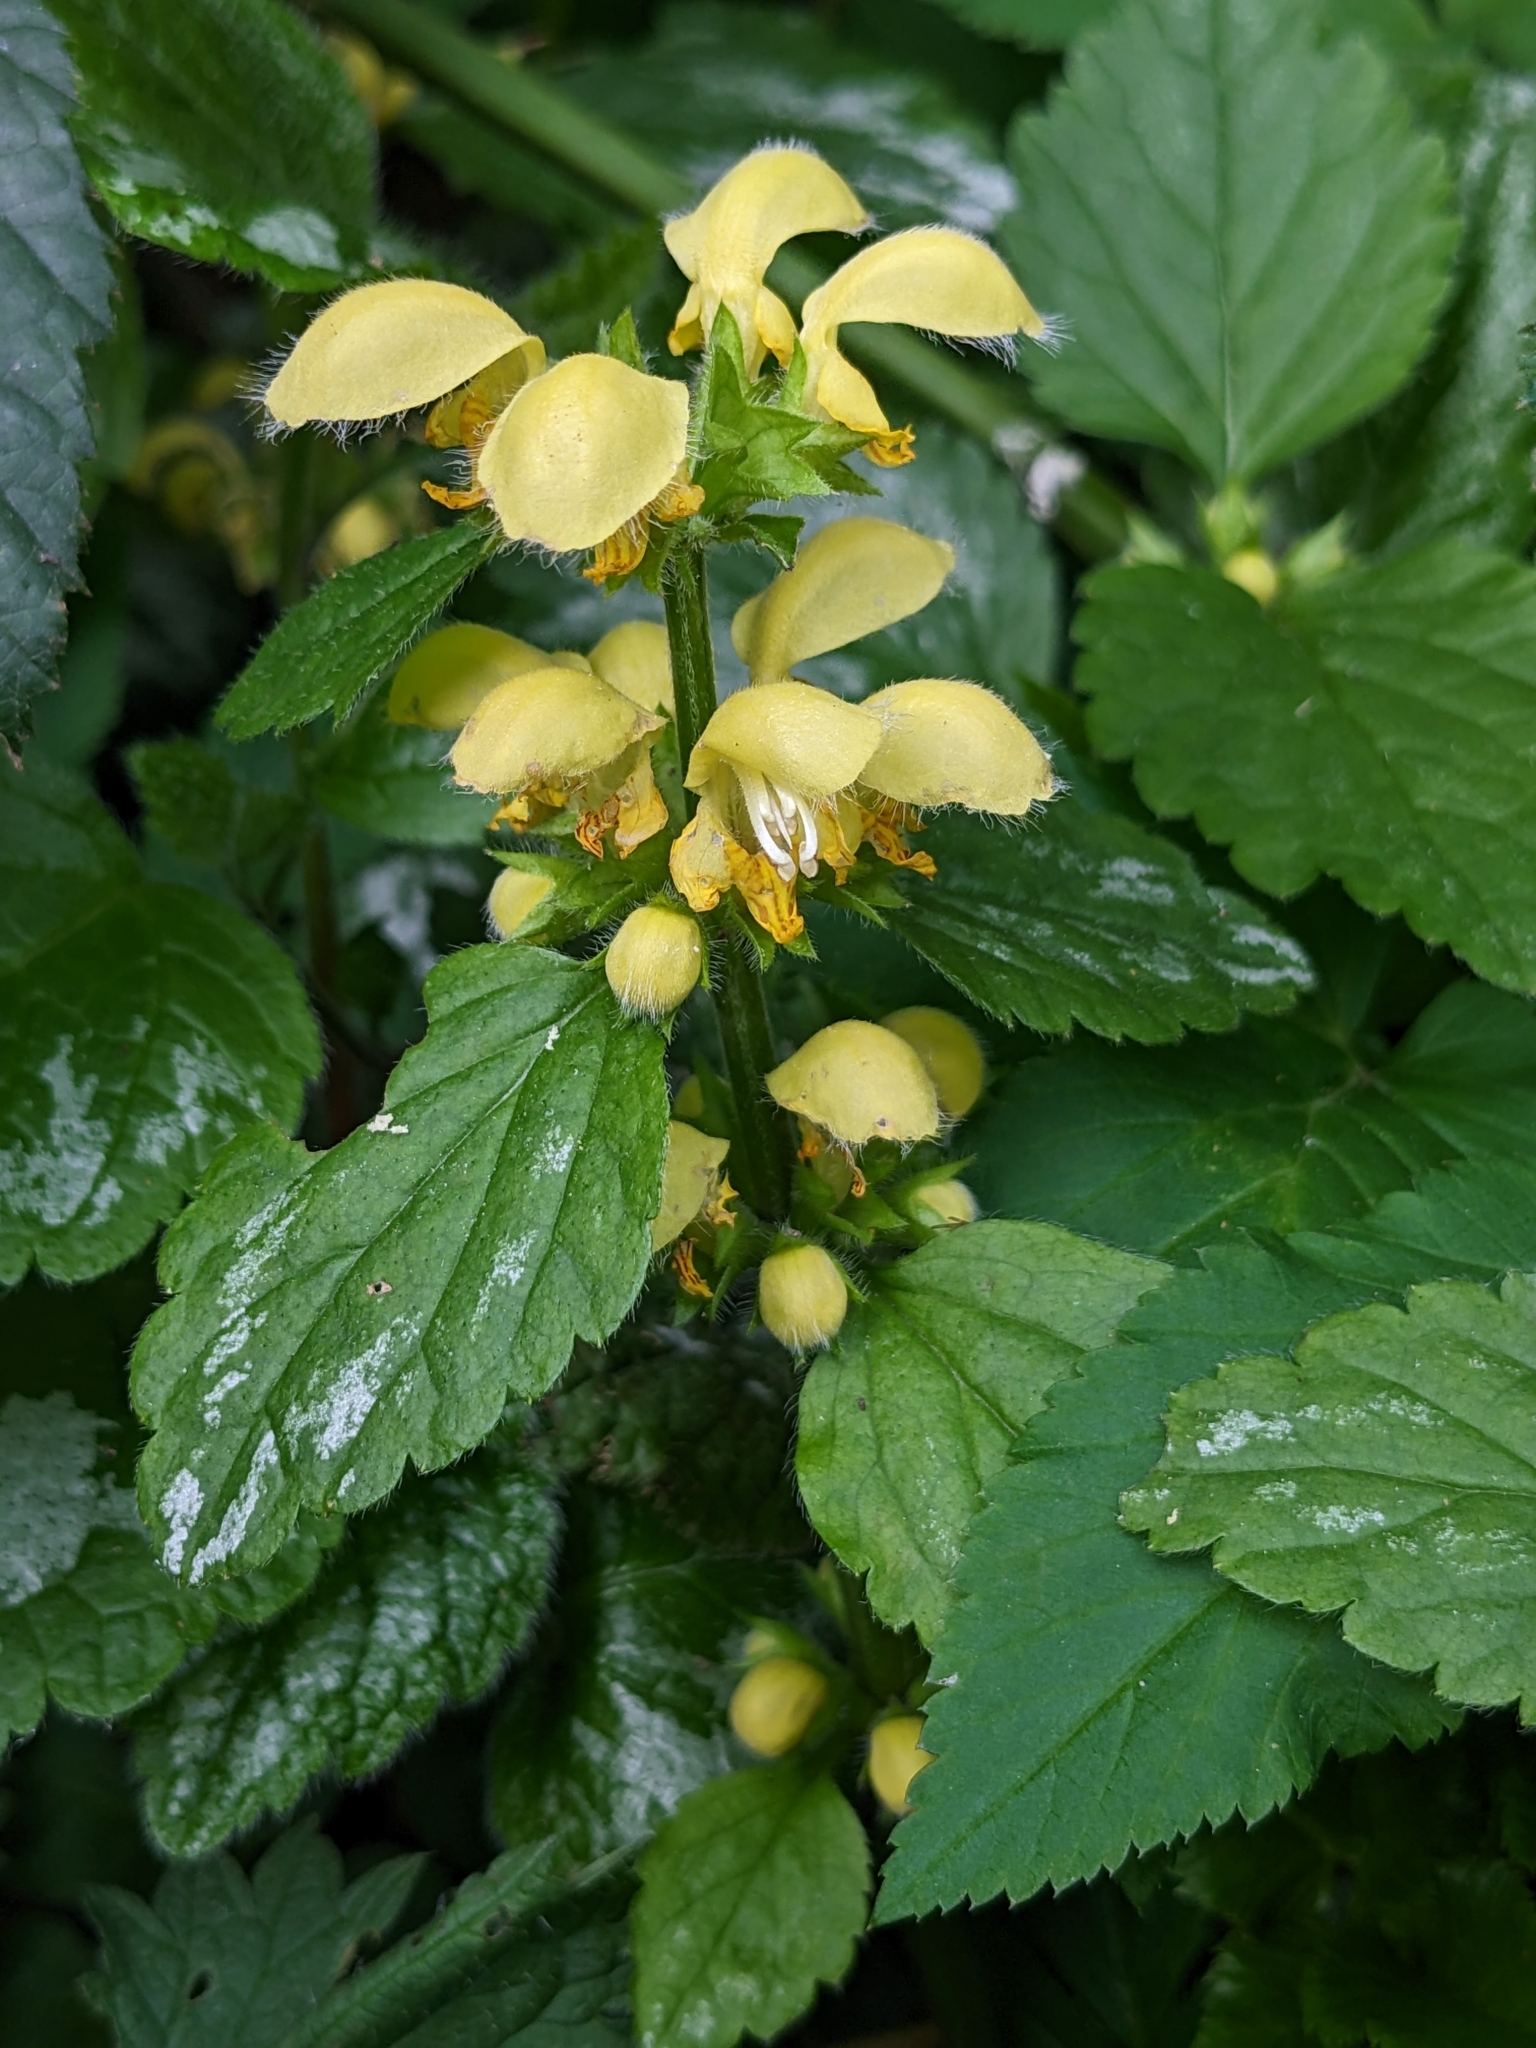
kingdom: Plantae
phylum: Tracheophyta
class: Magnoliopsida
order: Lamiales
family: Lamiaceae
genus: Lamium
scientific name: Lamium galeobdolon
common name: Yellow archangel
